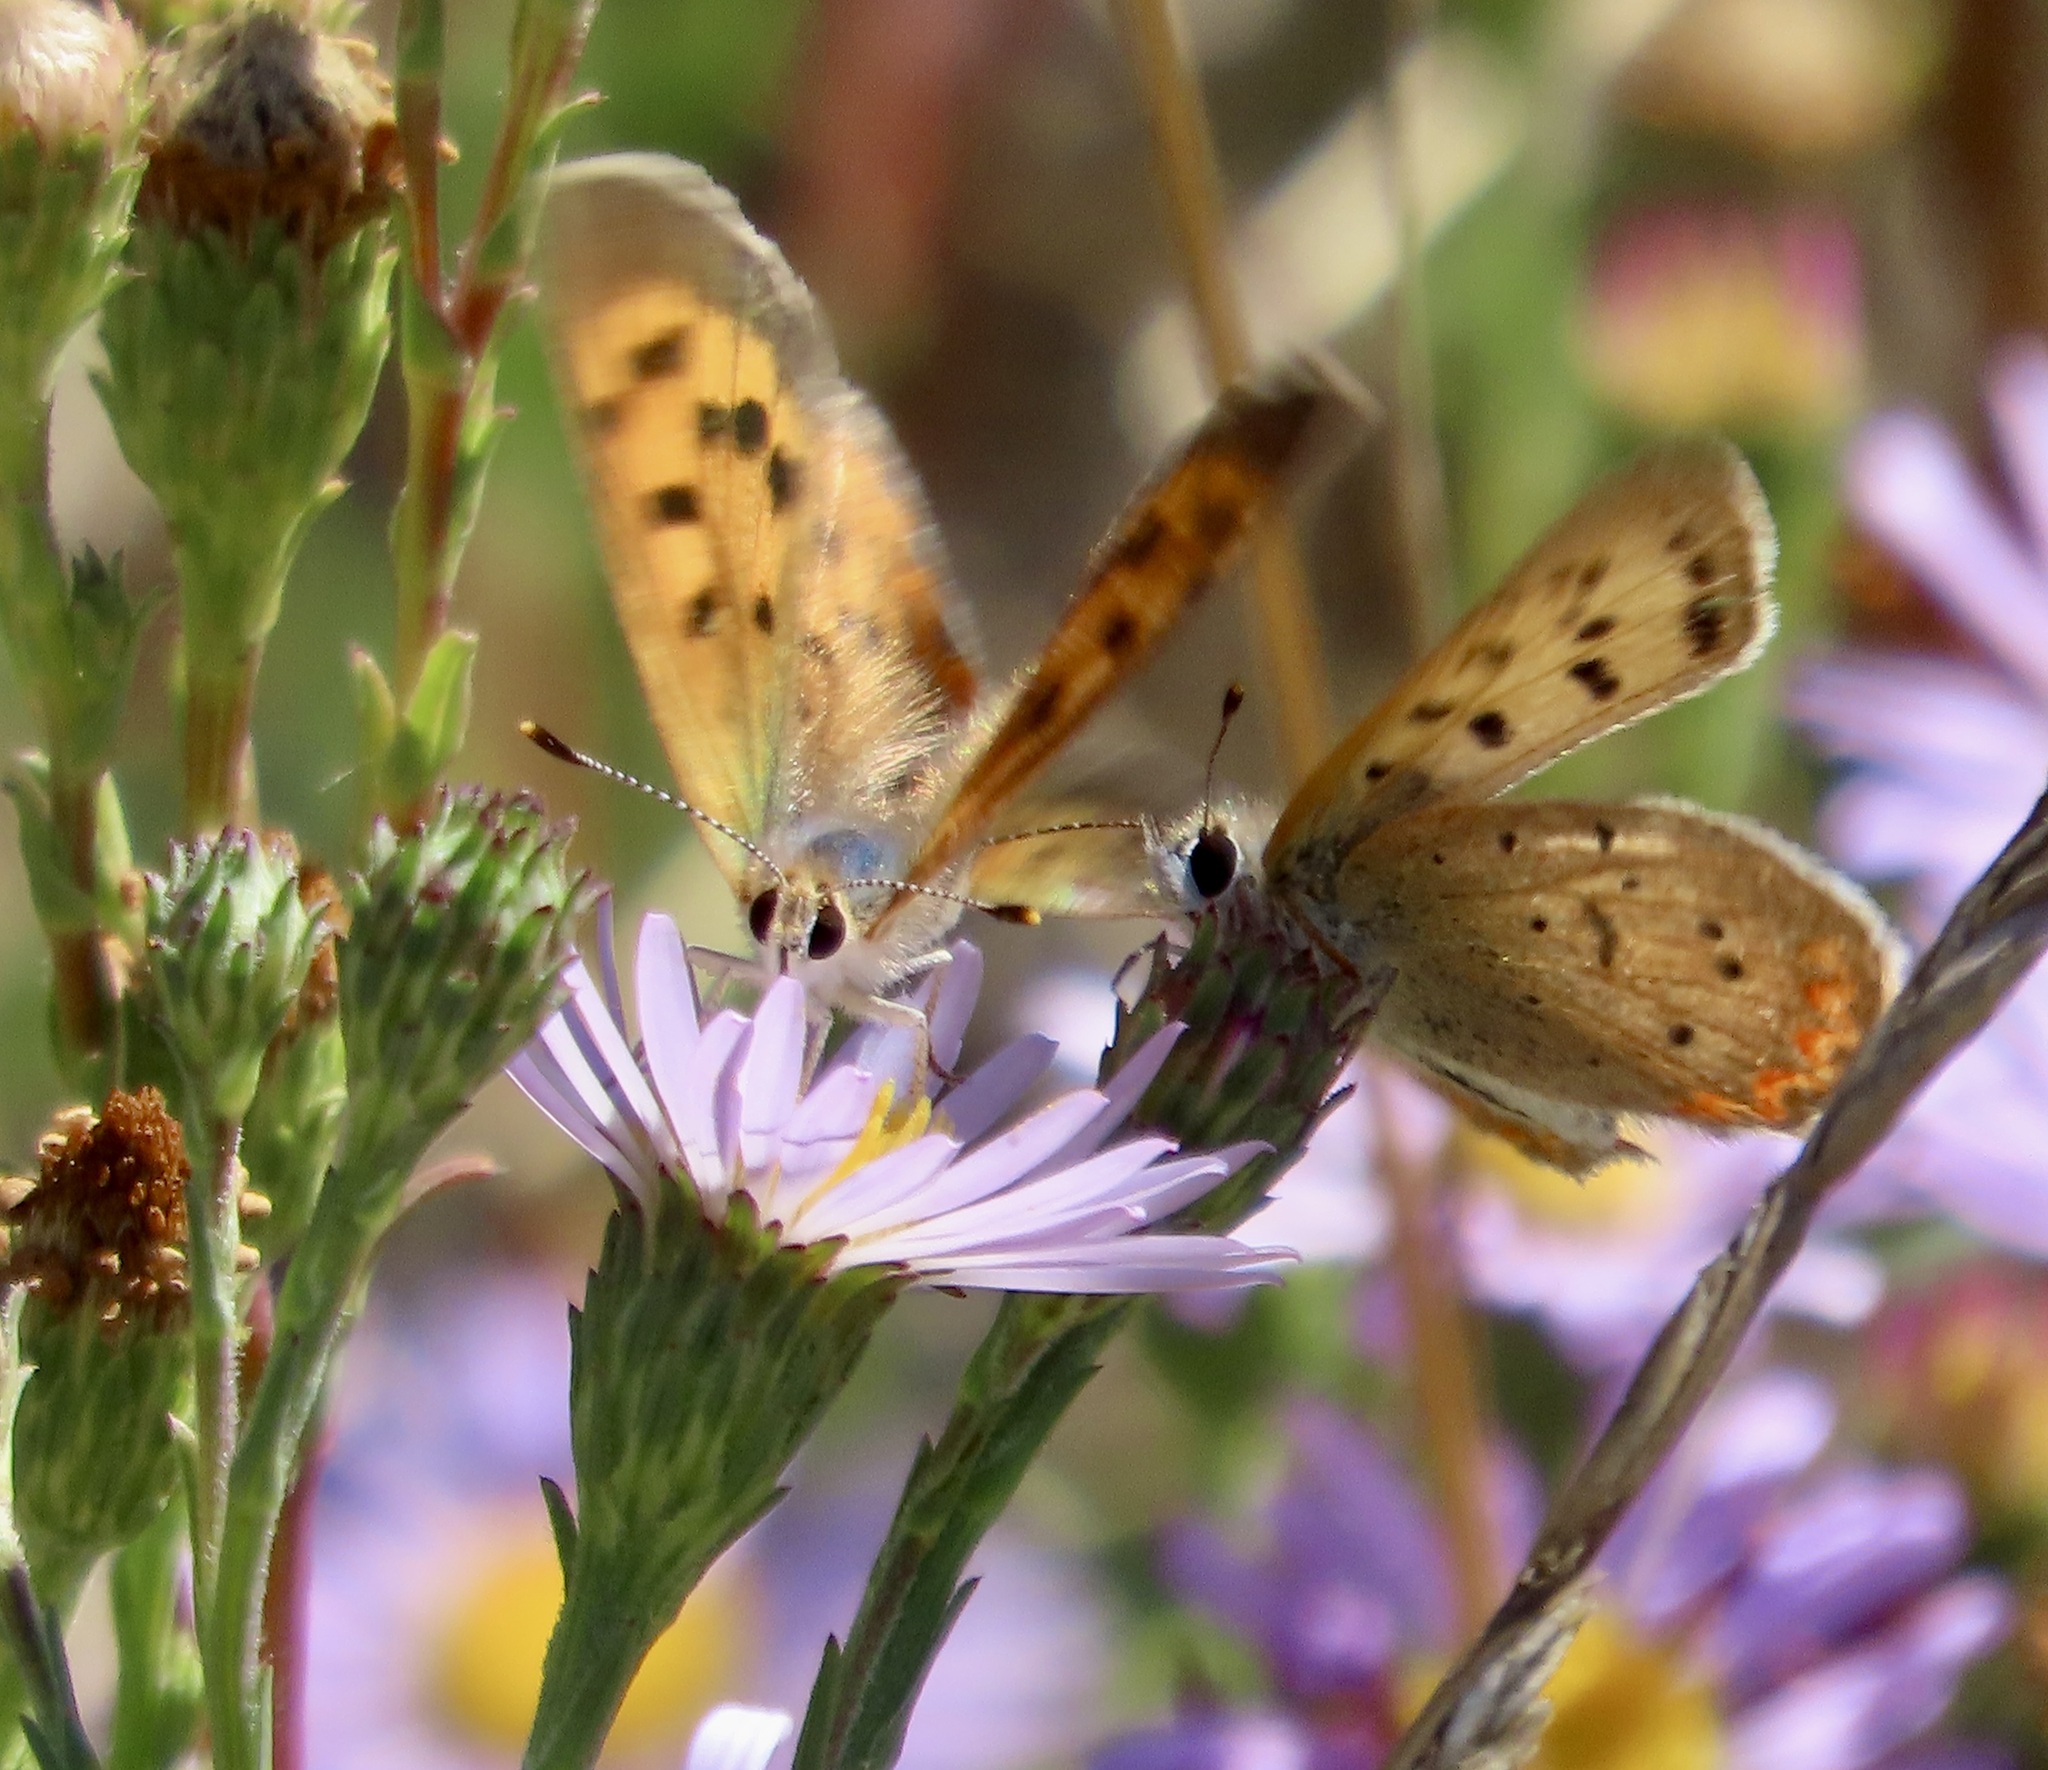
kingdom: Animalia
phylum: Arthropoda
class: Insecta
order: Lepidoptera
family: Lycaenidae
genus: Tharsalea
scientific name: Tharsalea helloides
